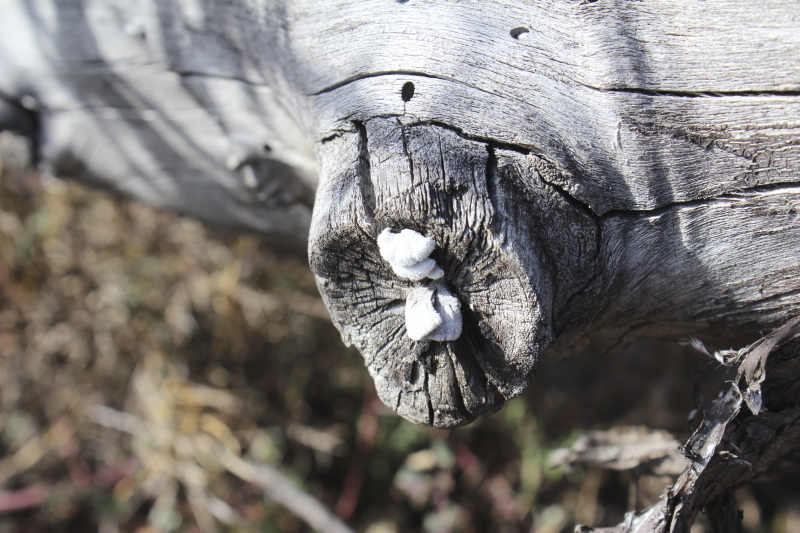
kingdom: Fungi
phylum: Basidiomycota
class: Agaricomycetes
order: Agaricales
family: Schizophyllaceae
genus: Schizophyllum
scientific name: Schizophyllum commune
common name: Common porecrust
